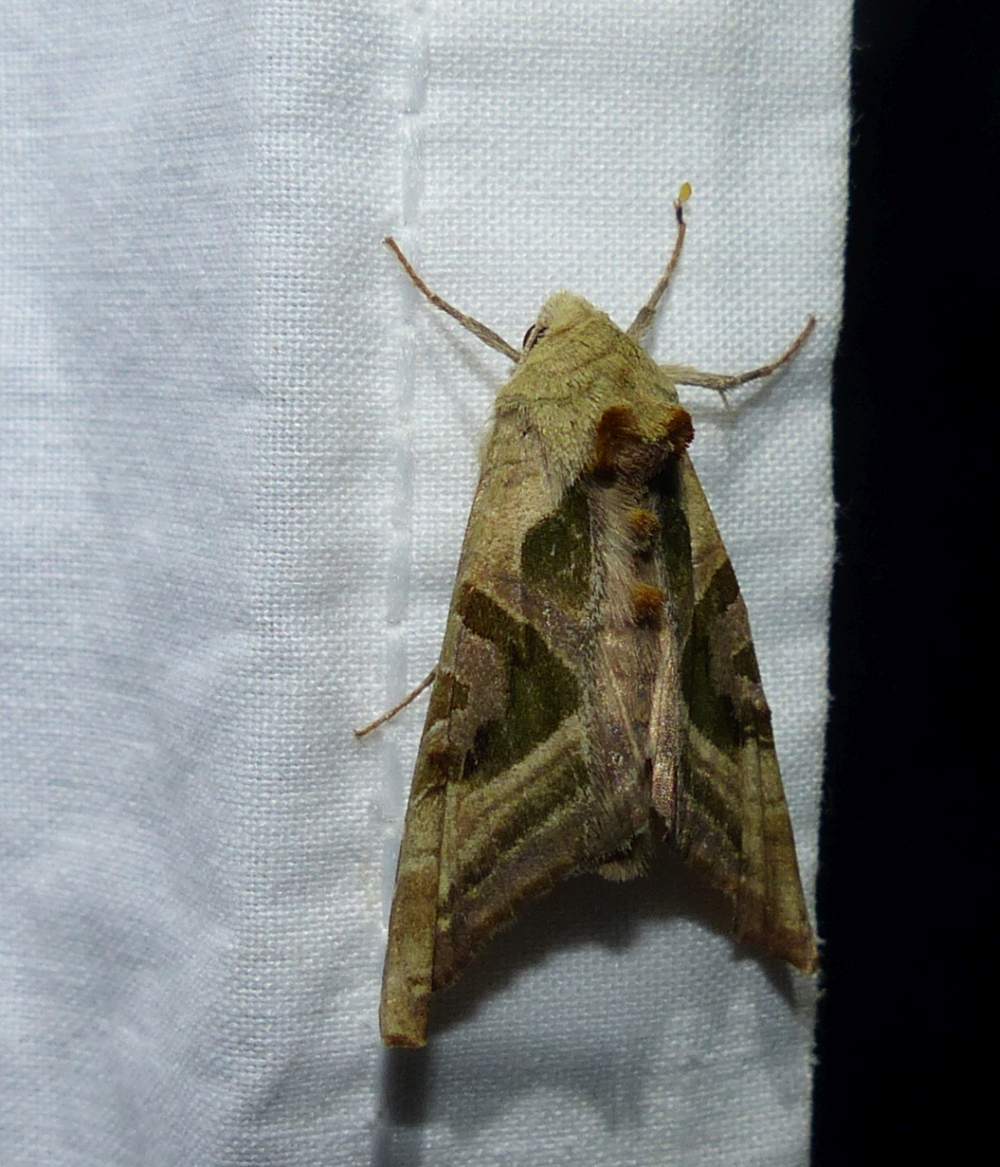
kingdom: Animalia
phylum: Arthropoda
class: Insecta
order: Lepidoptera
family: Noctuidae
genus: Phlogophora
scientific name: Phlogophora iris
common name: Olive angle shades
